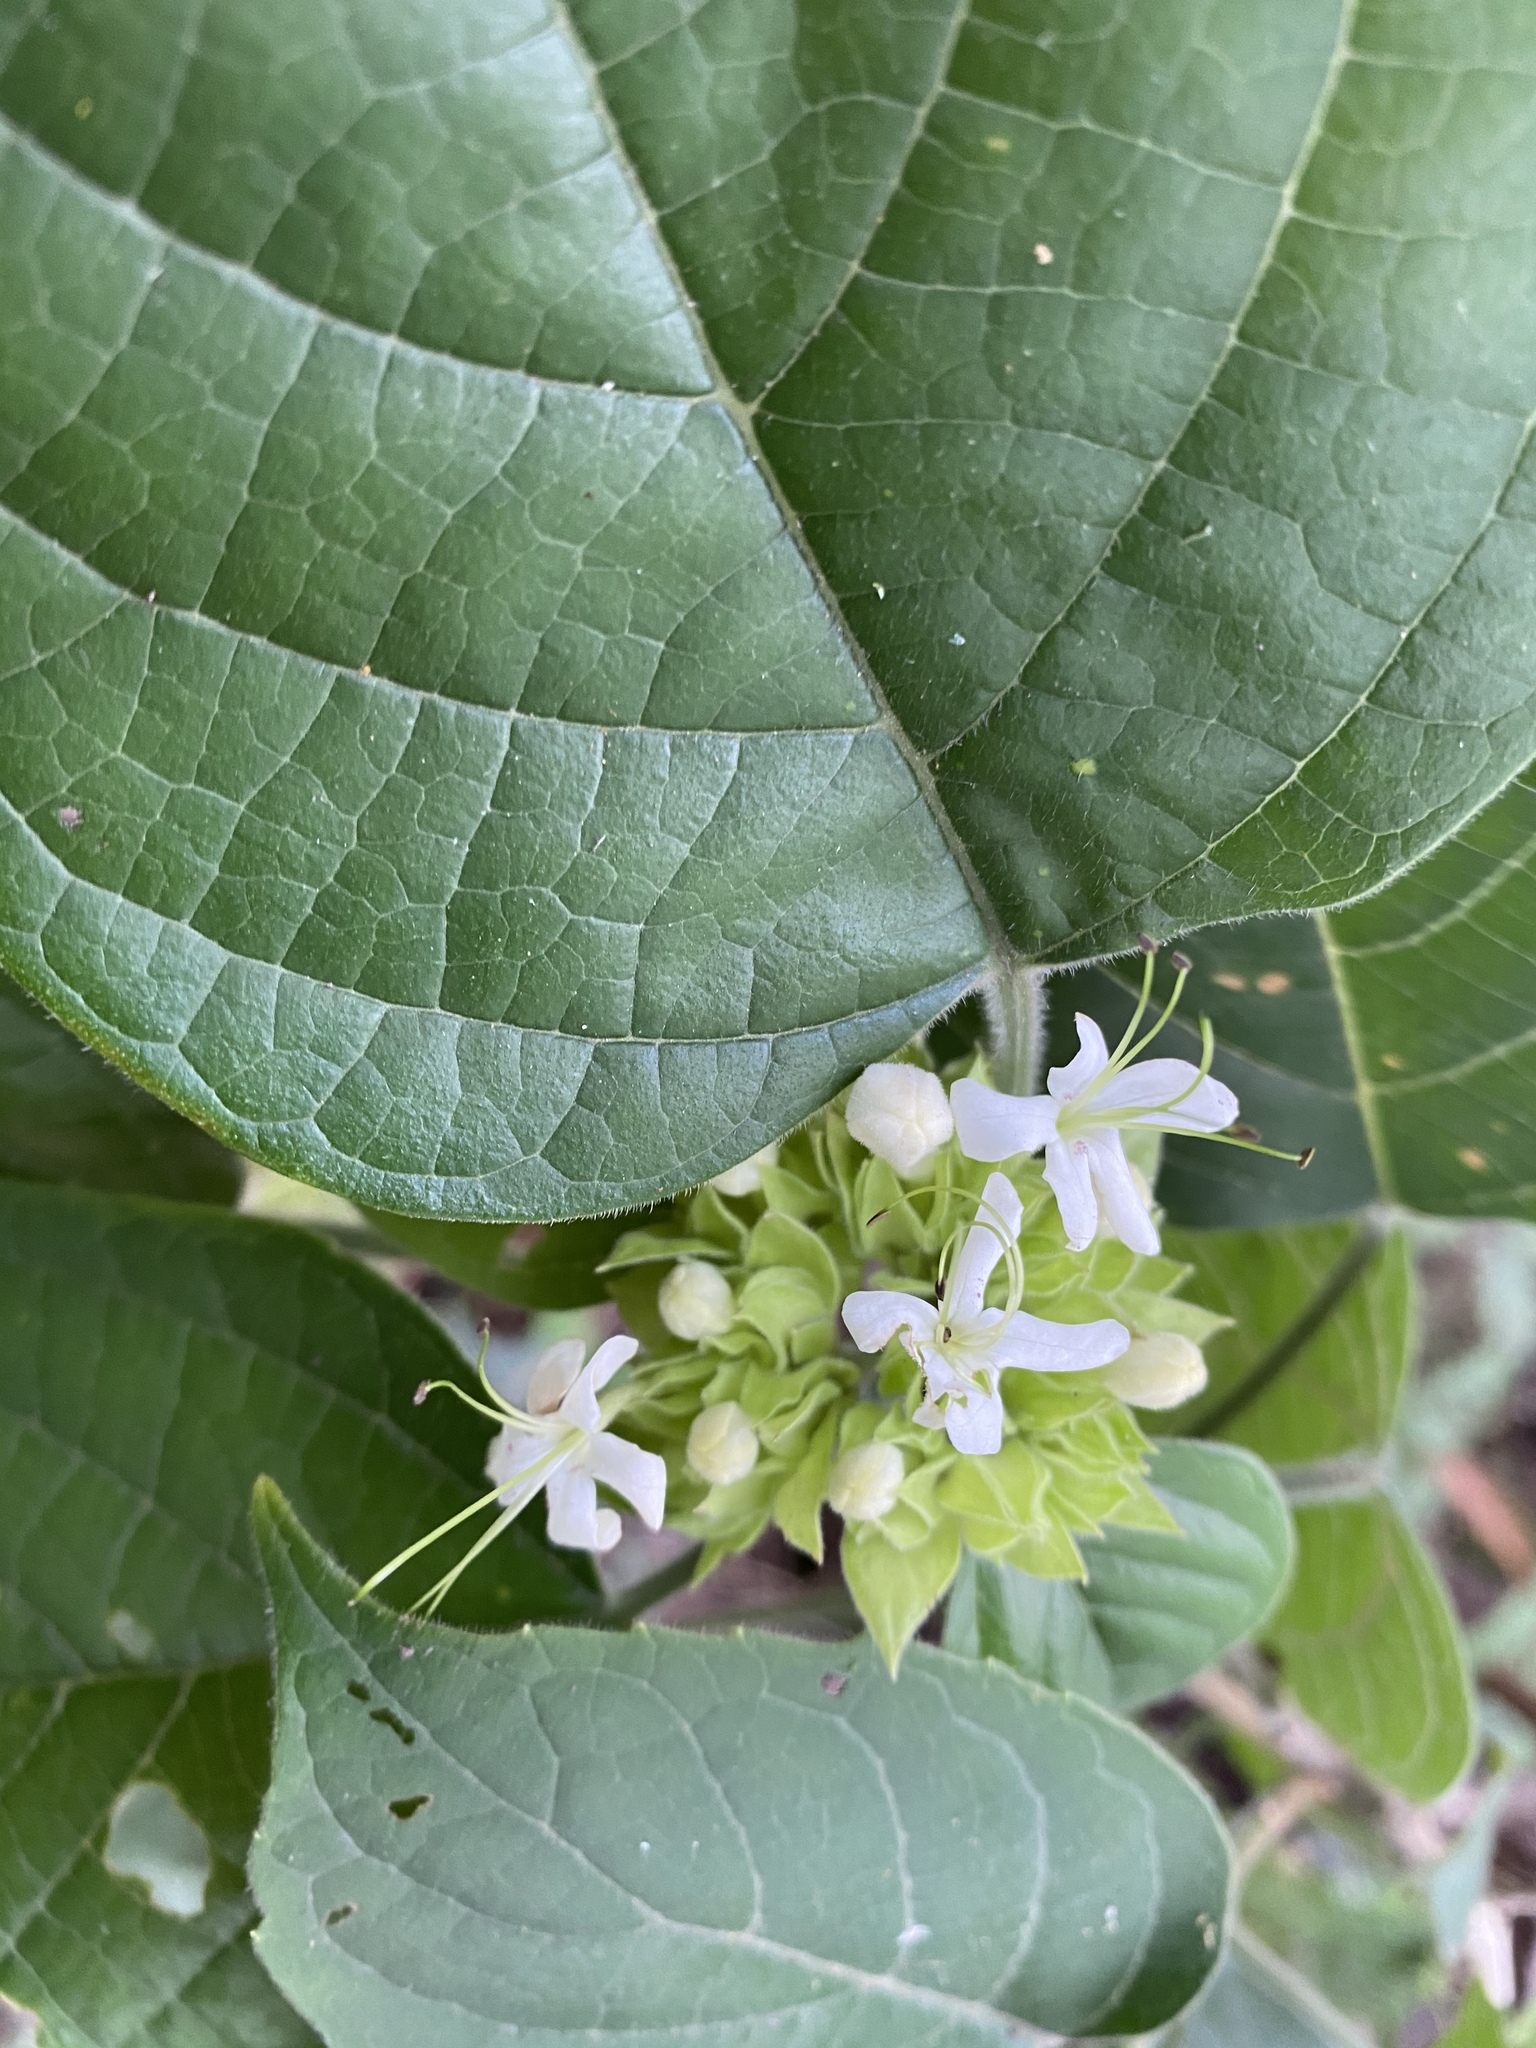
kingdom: Plantae
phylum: Tracheophyta
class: Magnoliopsida
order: Lamiales
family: Lamiaceae
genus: Clerodendrum
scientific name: Clerodendrum canescens
